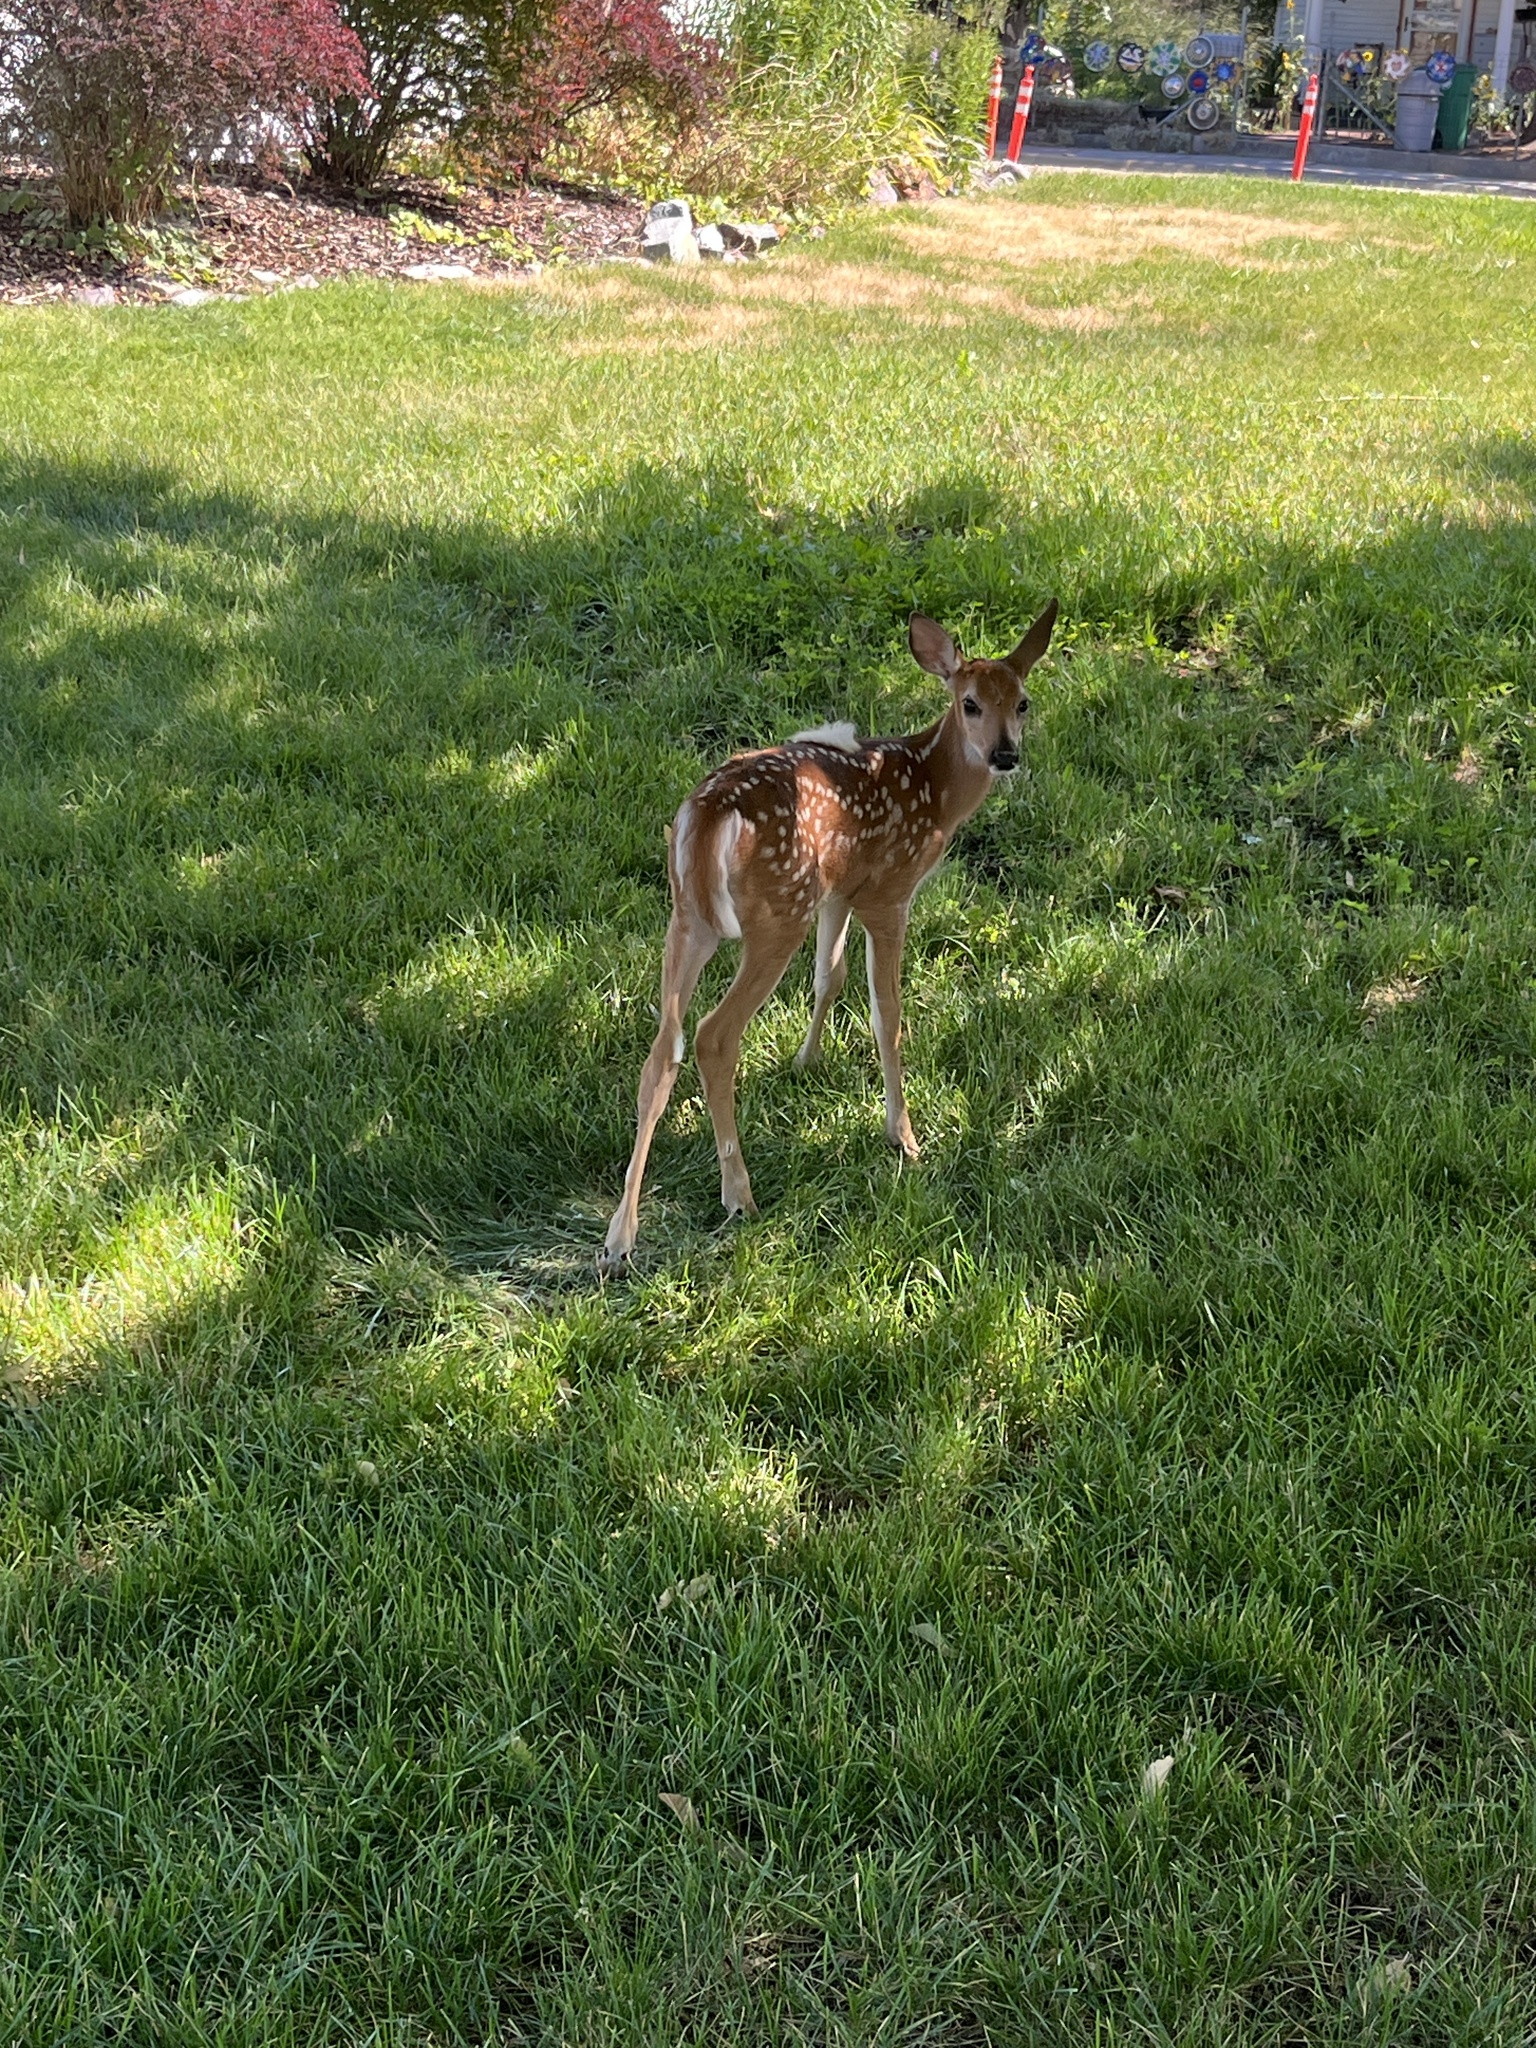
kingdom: Animalia
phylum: Chordata
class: Mammalia
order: Artiodactyla
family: Cervidae
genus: Odocoileus
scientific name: Odocoileus virginianus
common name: White-tailed deer
